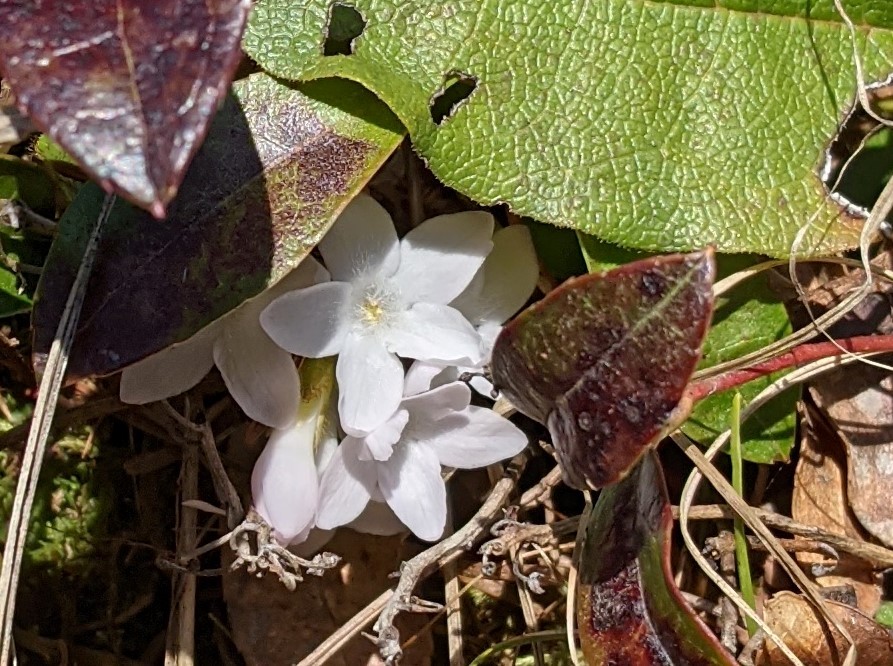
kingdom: Plantae
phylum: Tracheophyta
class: Magnoliopsida
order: Ericales
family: Ericaceae
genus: Epigaea
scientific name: Epigaea repens
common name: Gravelroot
